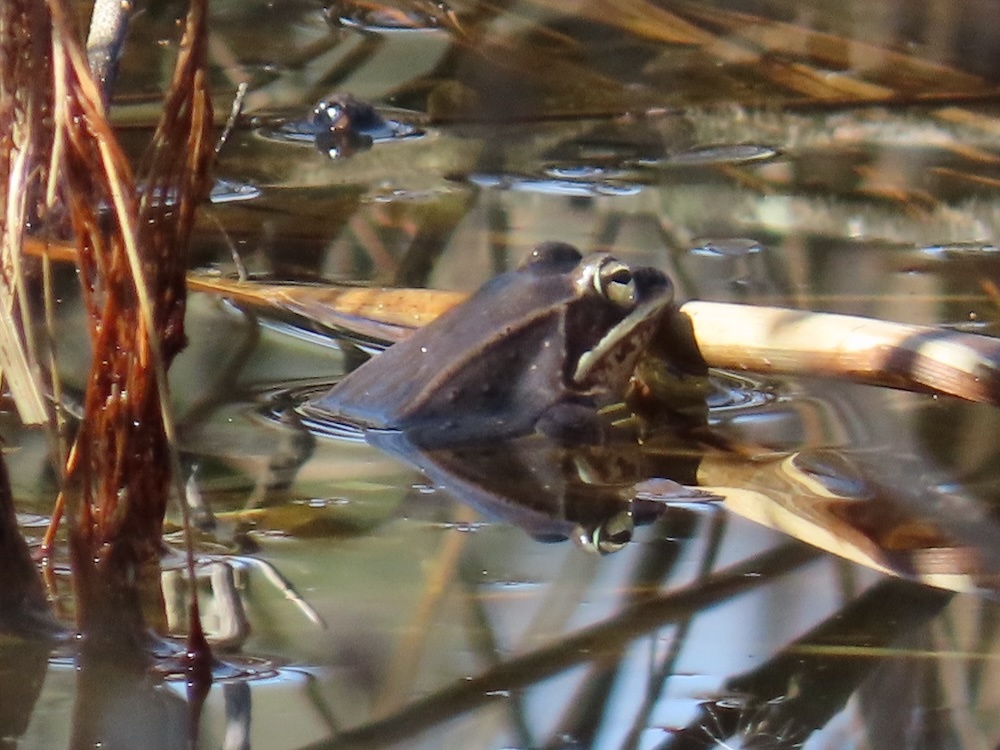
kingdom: Animalia
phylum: Chordata
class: Amphibia
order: Anura
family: Ranidae
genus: Lithobates
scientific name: Lithobates sylvaticus
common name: Wood frog
